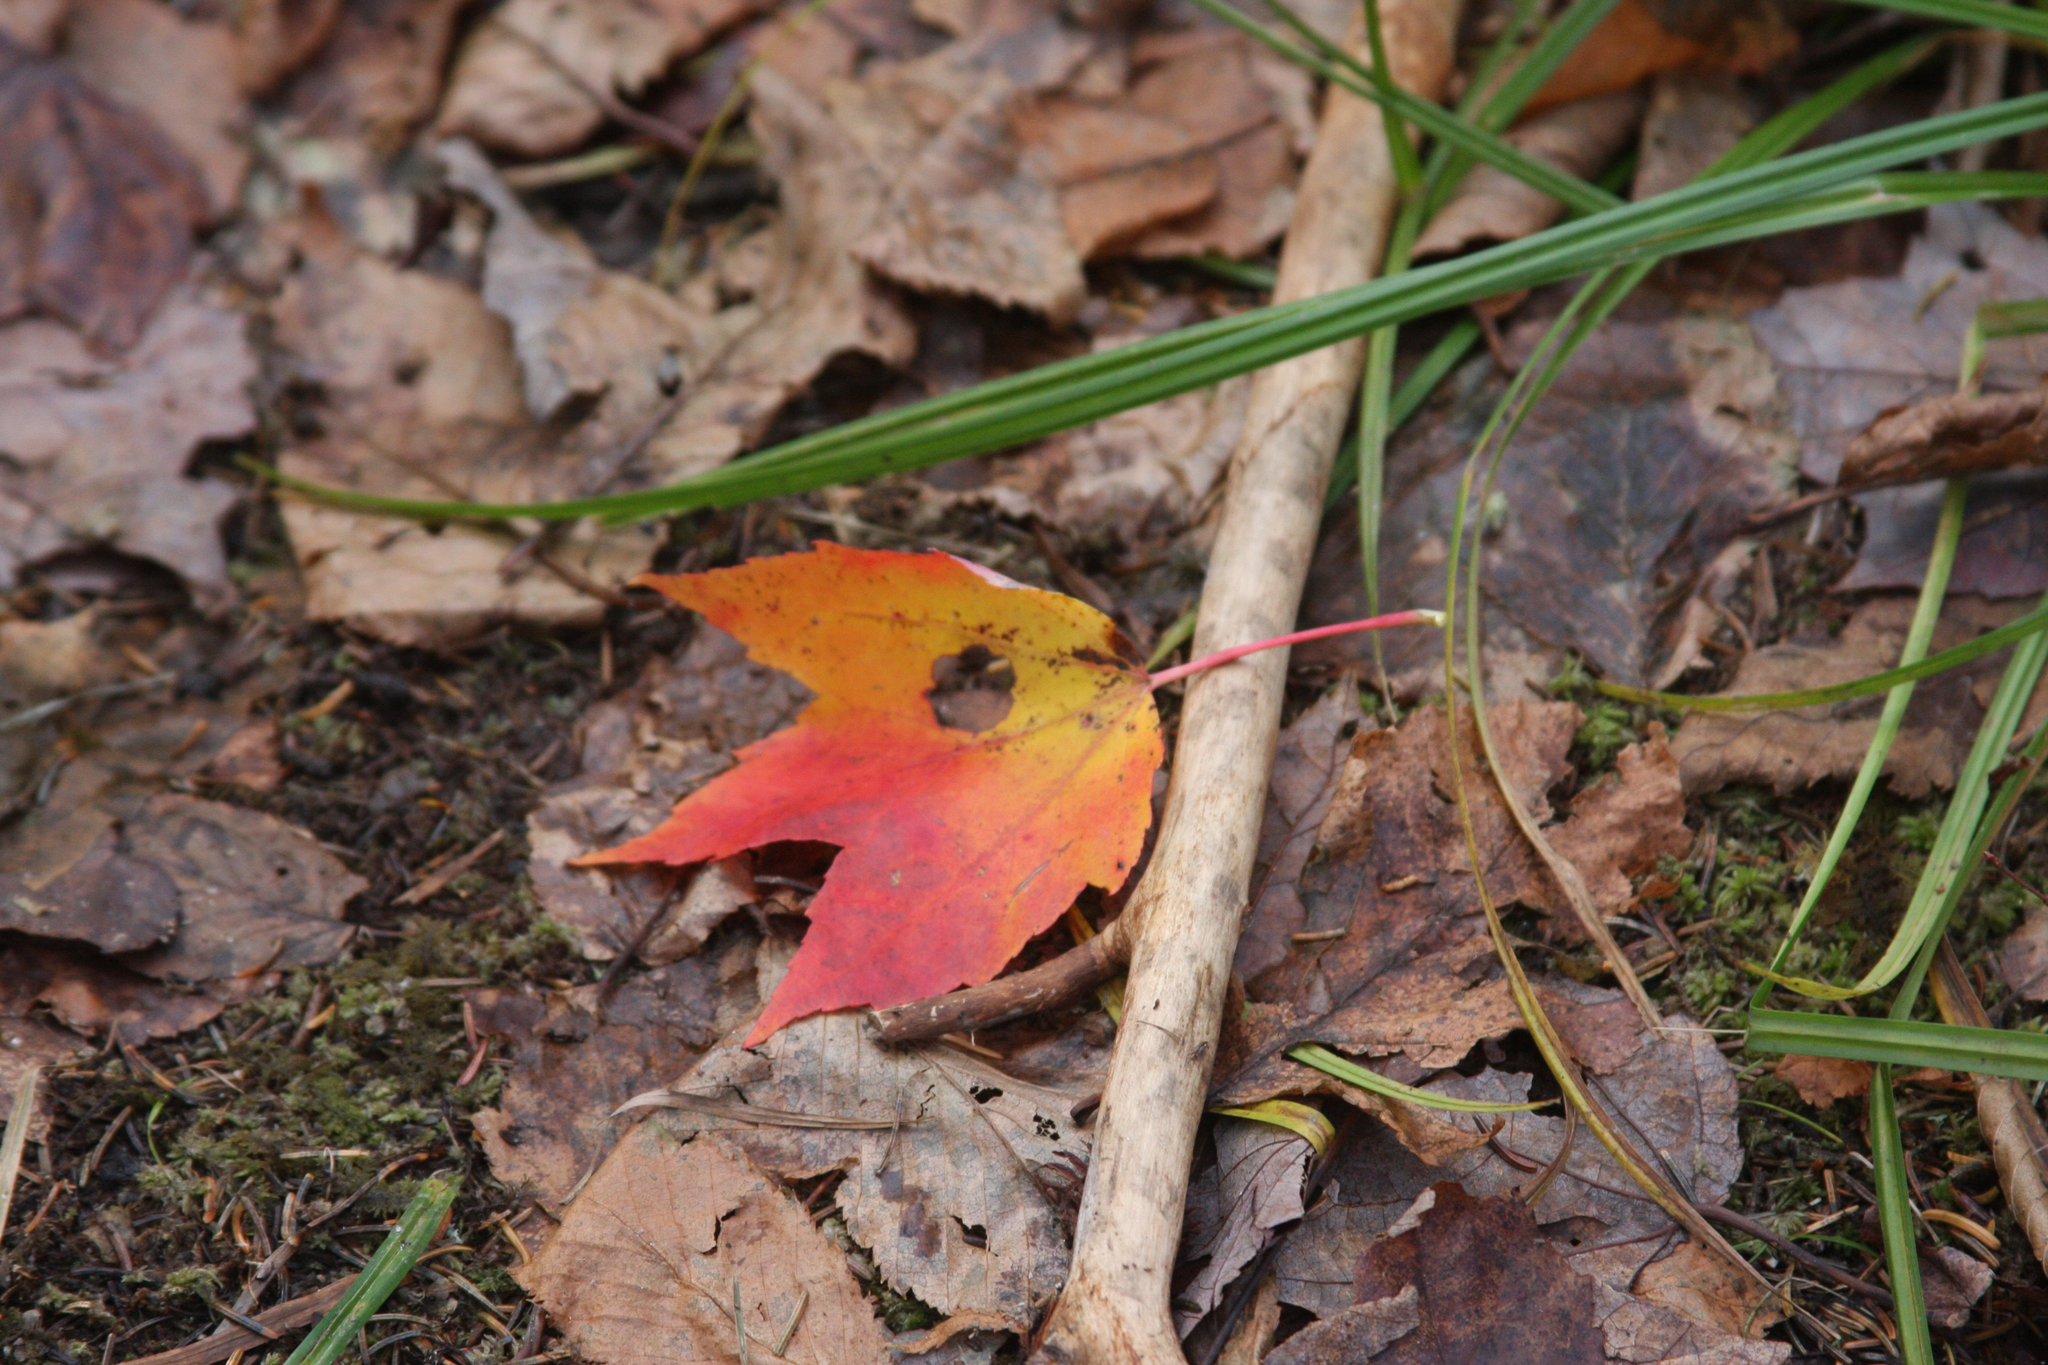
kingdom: Plantae
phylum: Tracheophyta
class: Magnoliopsida
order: Sapindales
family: Sapindaceae
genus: Acer
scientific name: Acer rubrum
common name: Red maple
